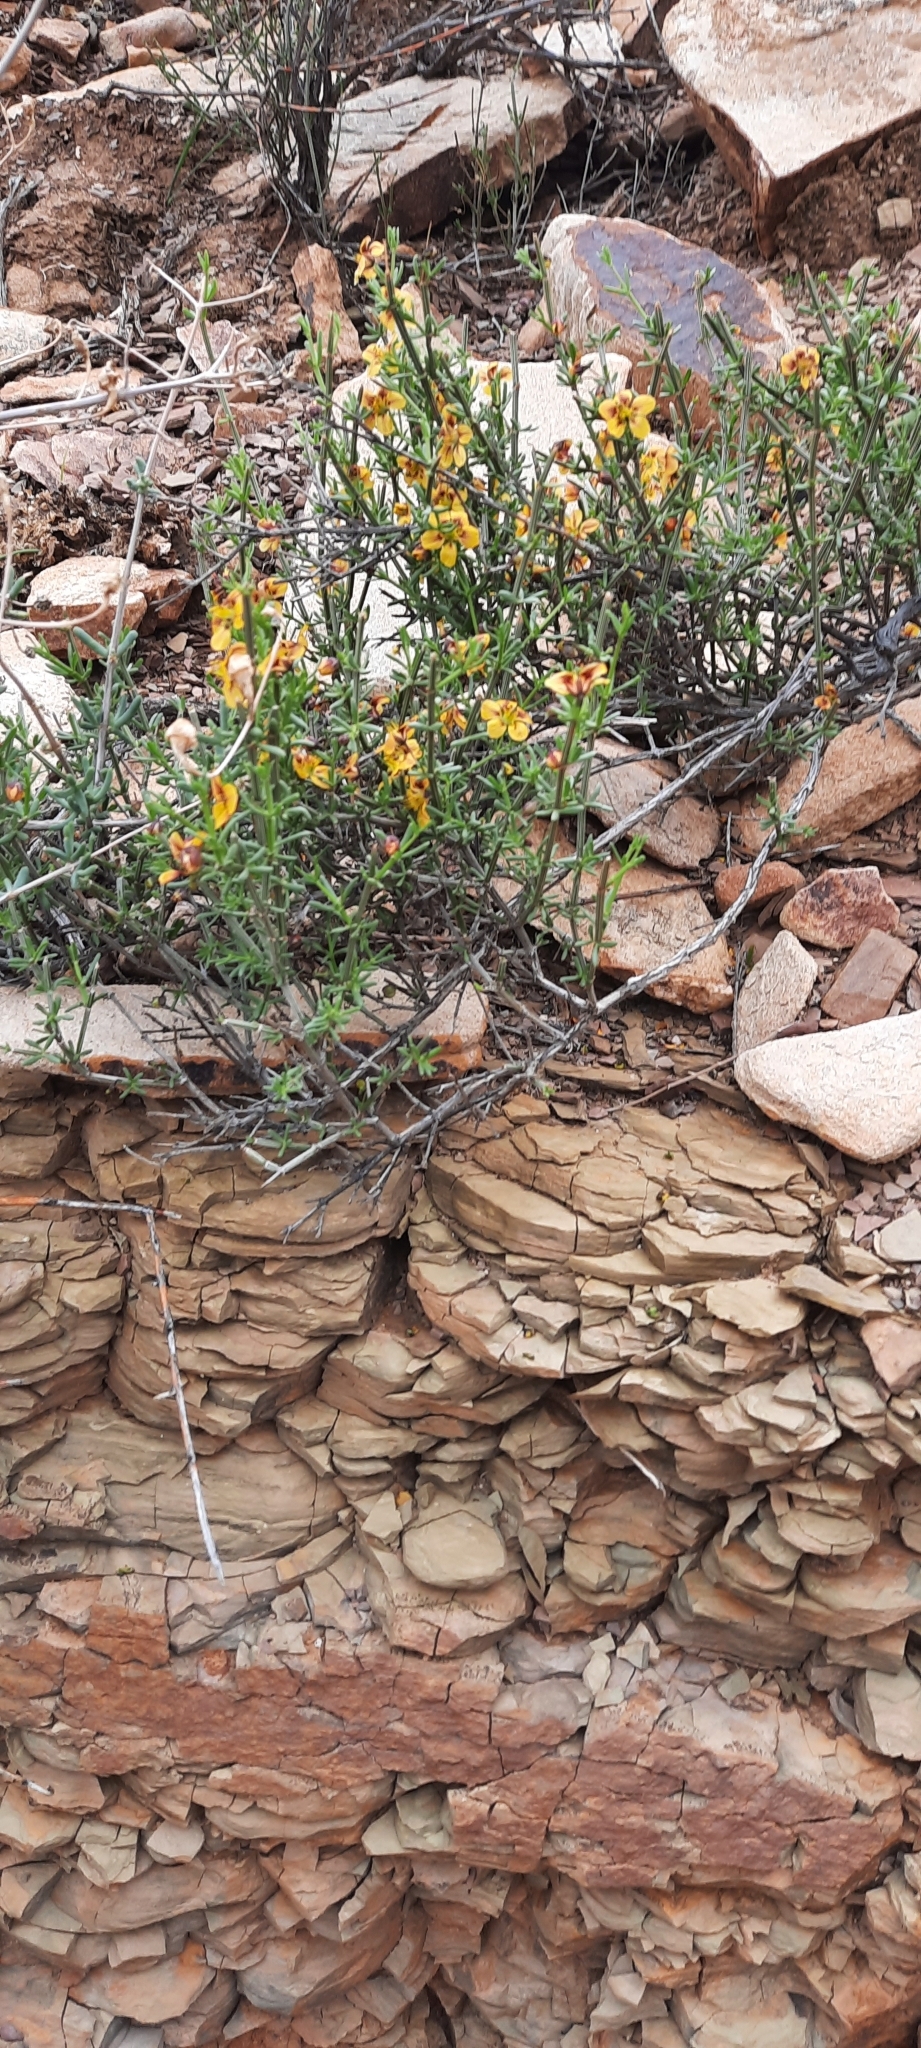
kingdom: Plantae
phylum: Tracheophyta
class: Magnoliopsida
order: Zygophyllales
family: Zygophyllaceae
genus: Roepera
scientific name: Roepera maculata
